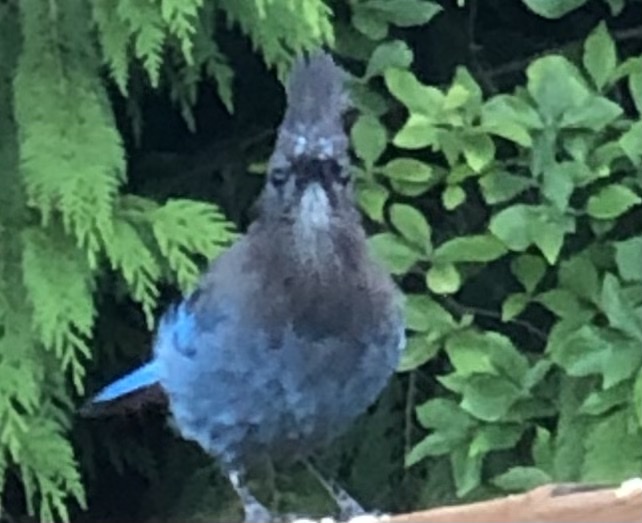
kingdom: Animalia
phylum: Chordata
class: Aves
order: Passeriformes
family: Corvidae
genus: Cyanocitta
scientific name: Cyanocitta stelleri
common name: Steller's jay
